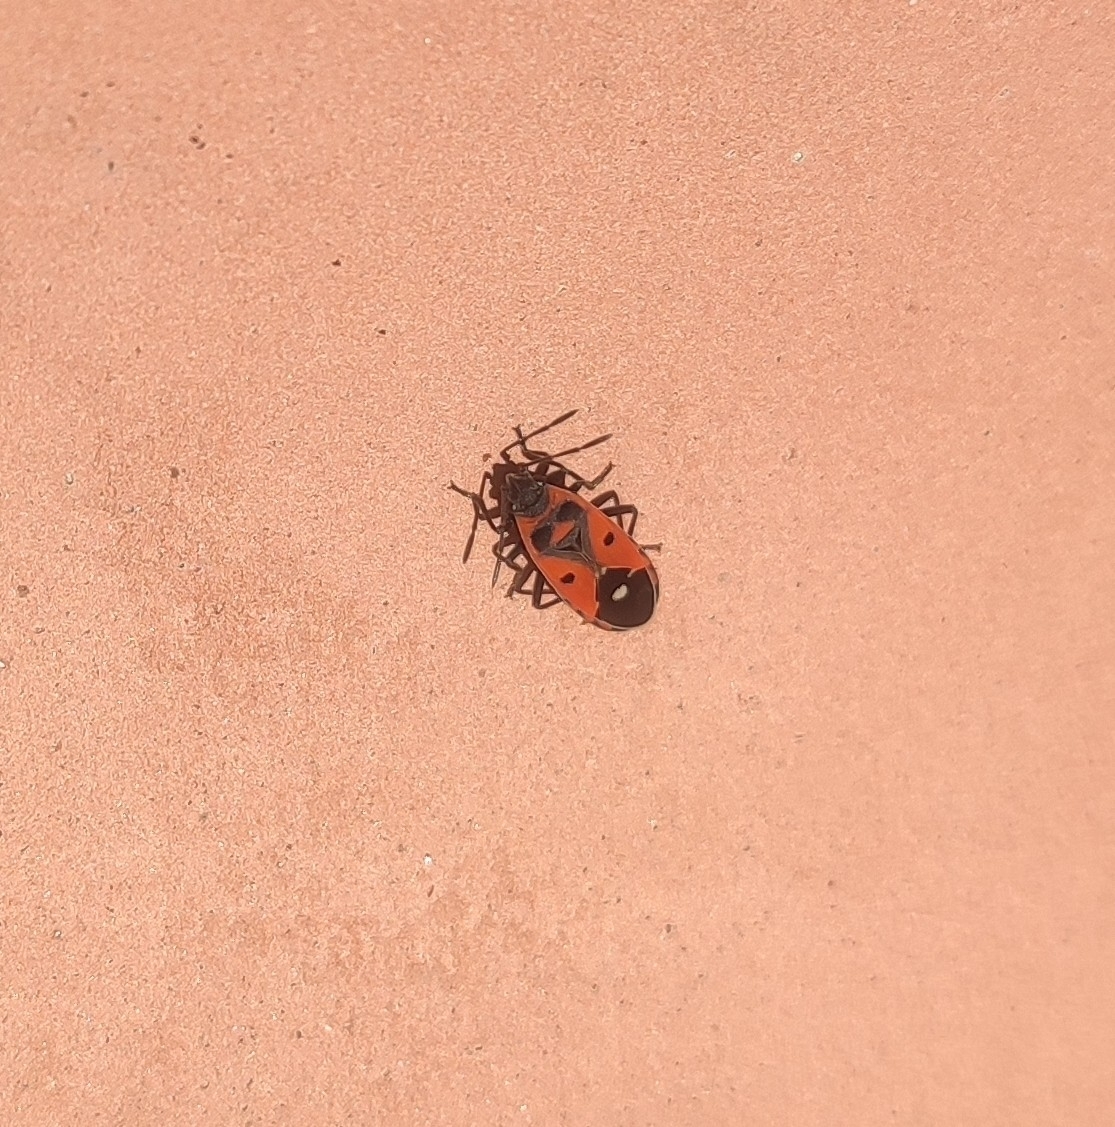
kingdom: Animalia
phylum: Arthropoda
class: Insecta
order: Hemiptera
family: Lygaeidae
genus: Melanocoryphus
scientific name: Melanocoryphus albomaculatus
